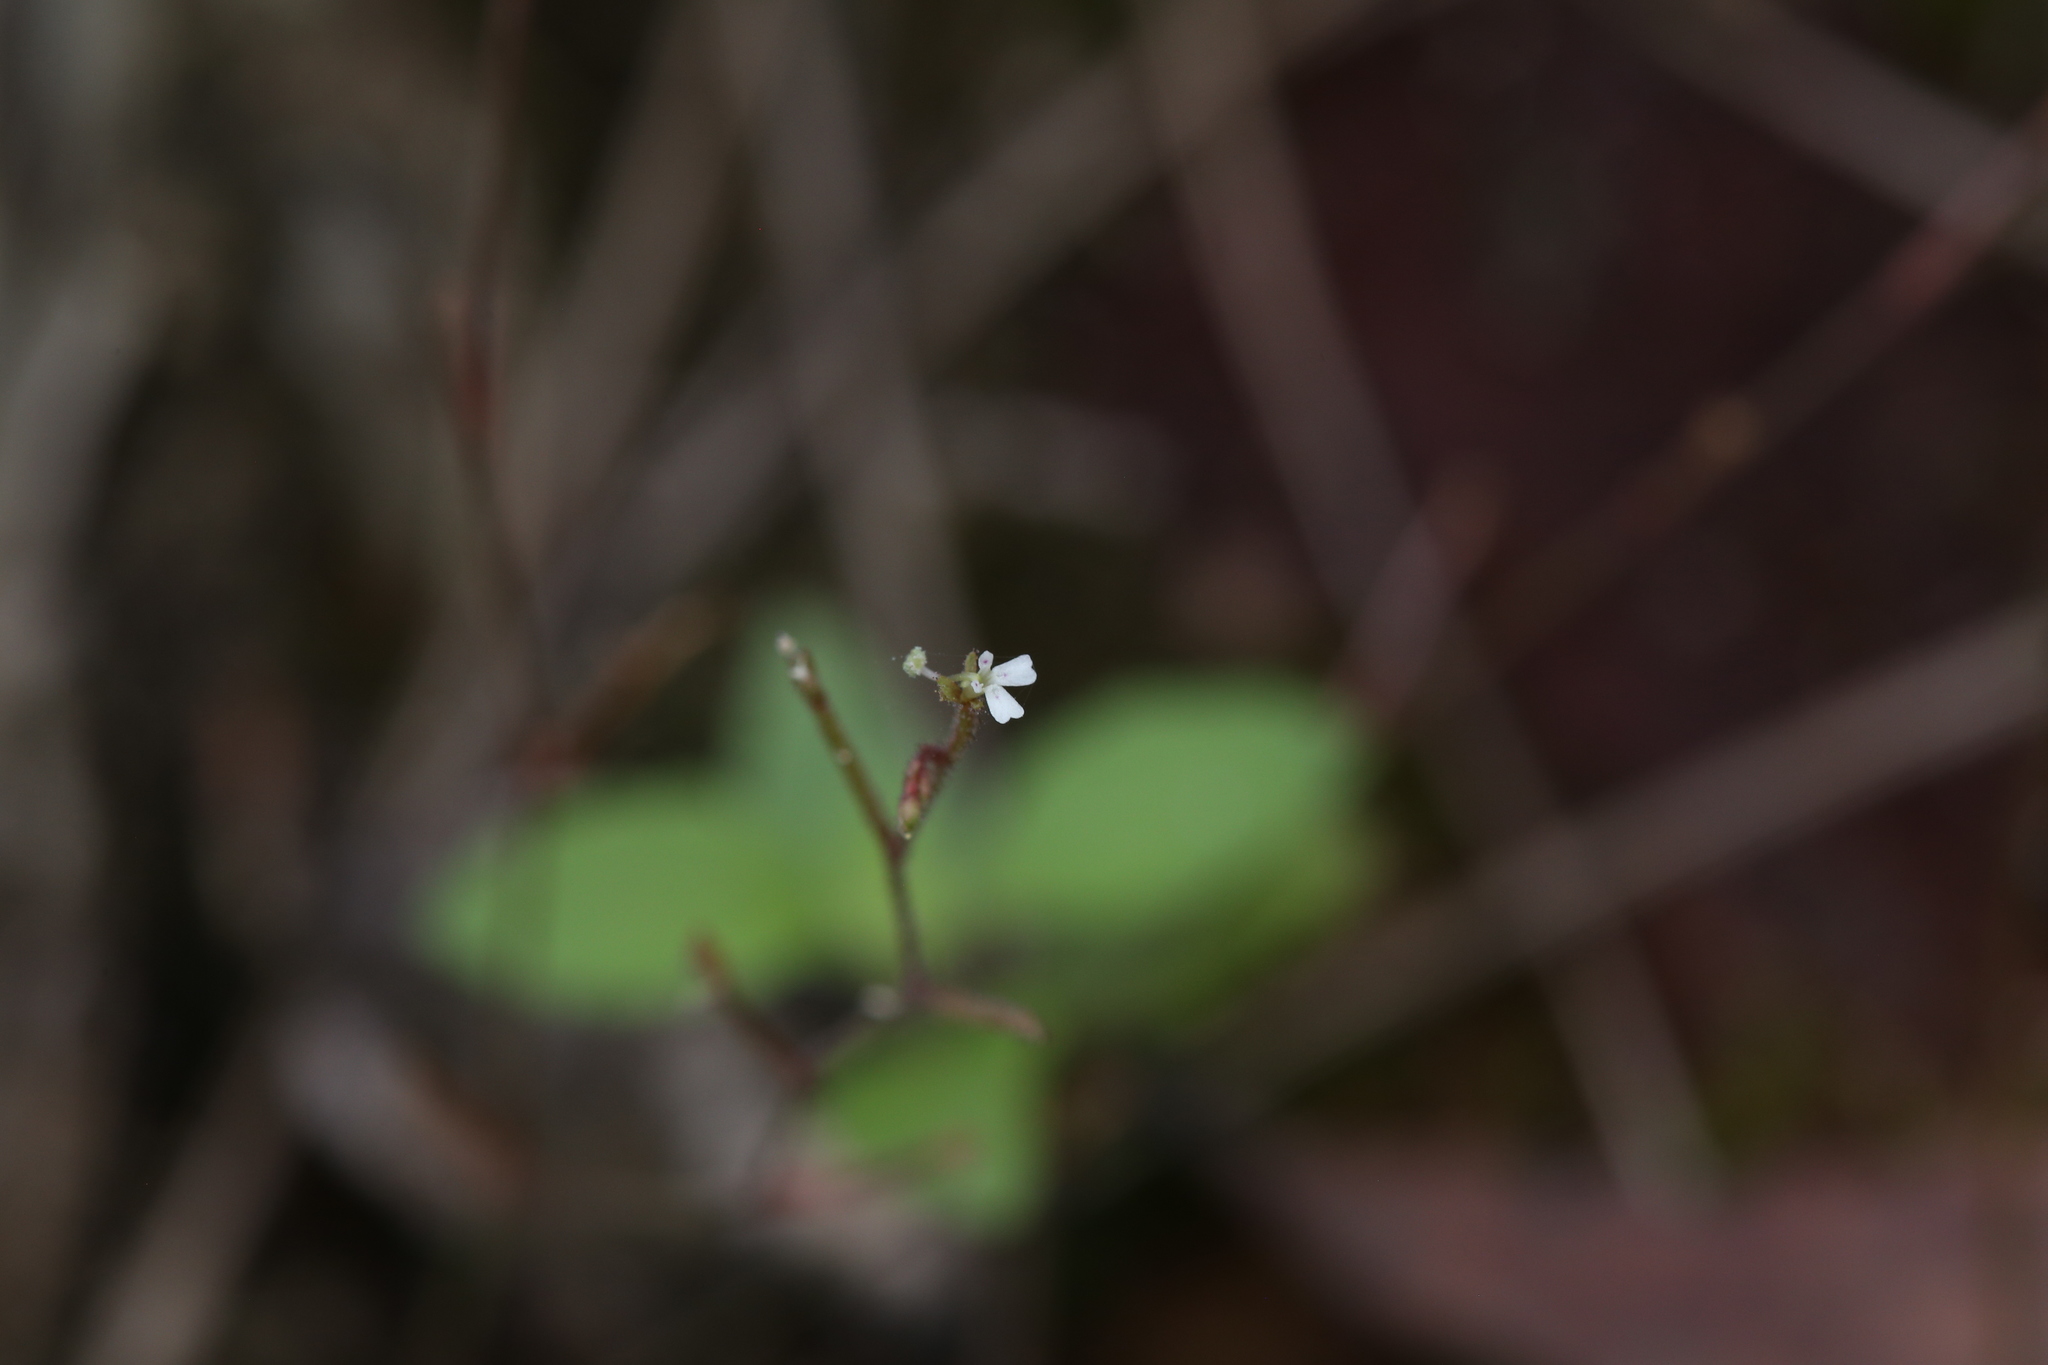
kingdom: Plantae
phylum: Tracheophyta
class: Magnoliopsida
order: Asterales
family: Stylidiaceae
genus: Stylidium
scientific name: Stylidium tenerum
